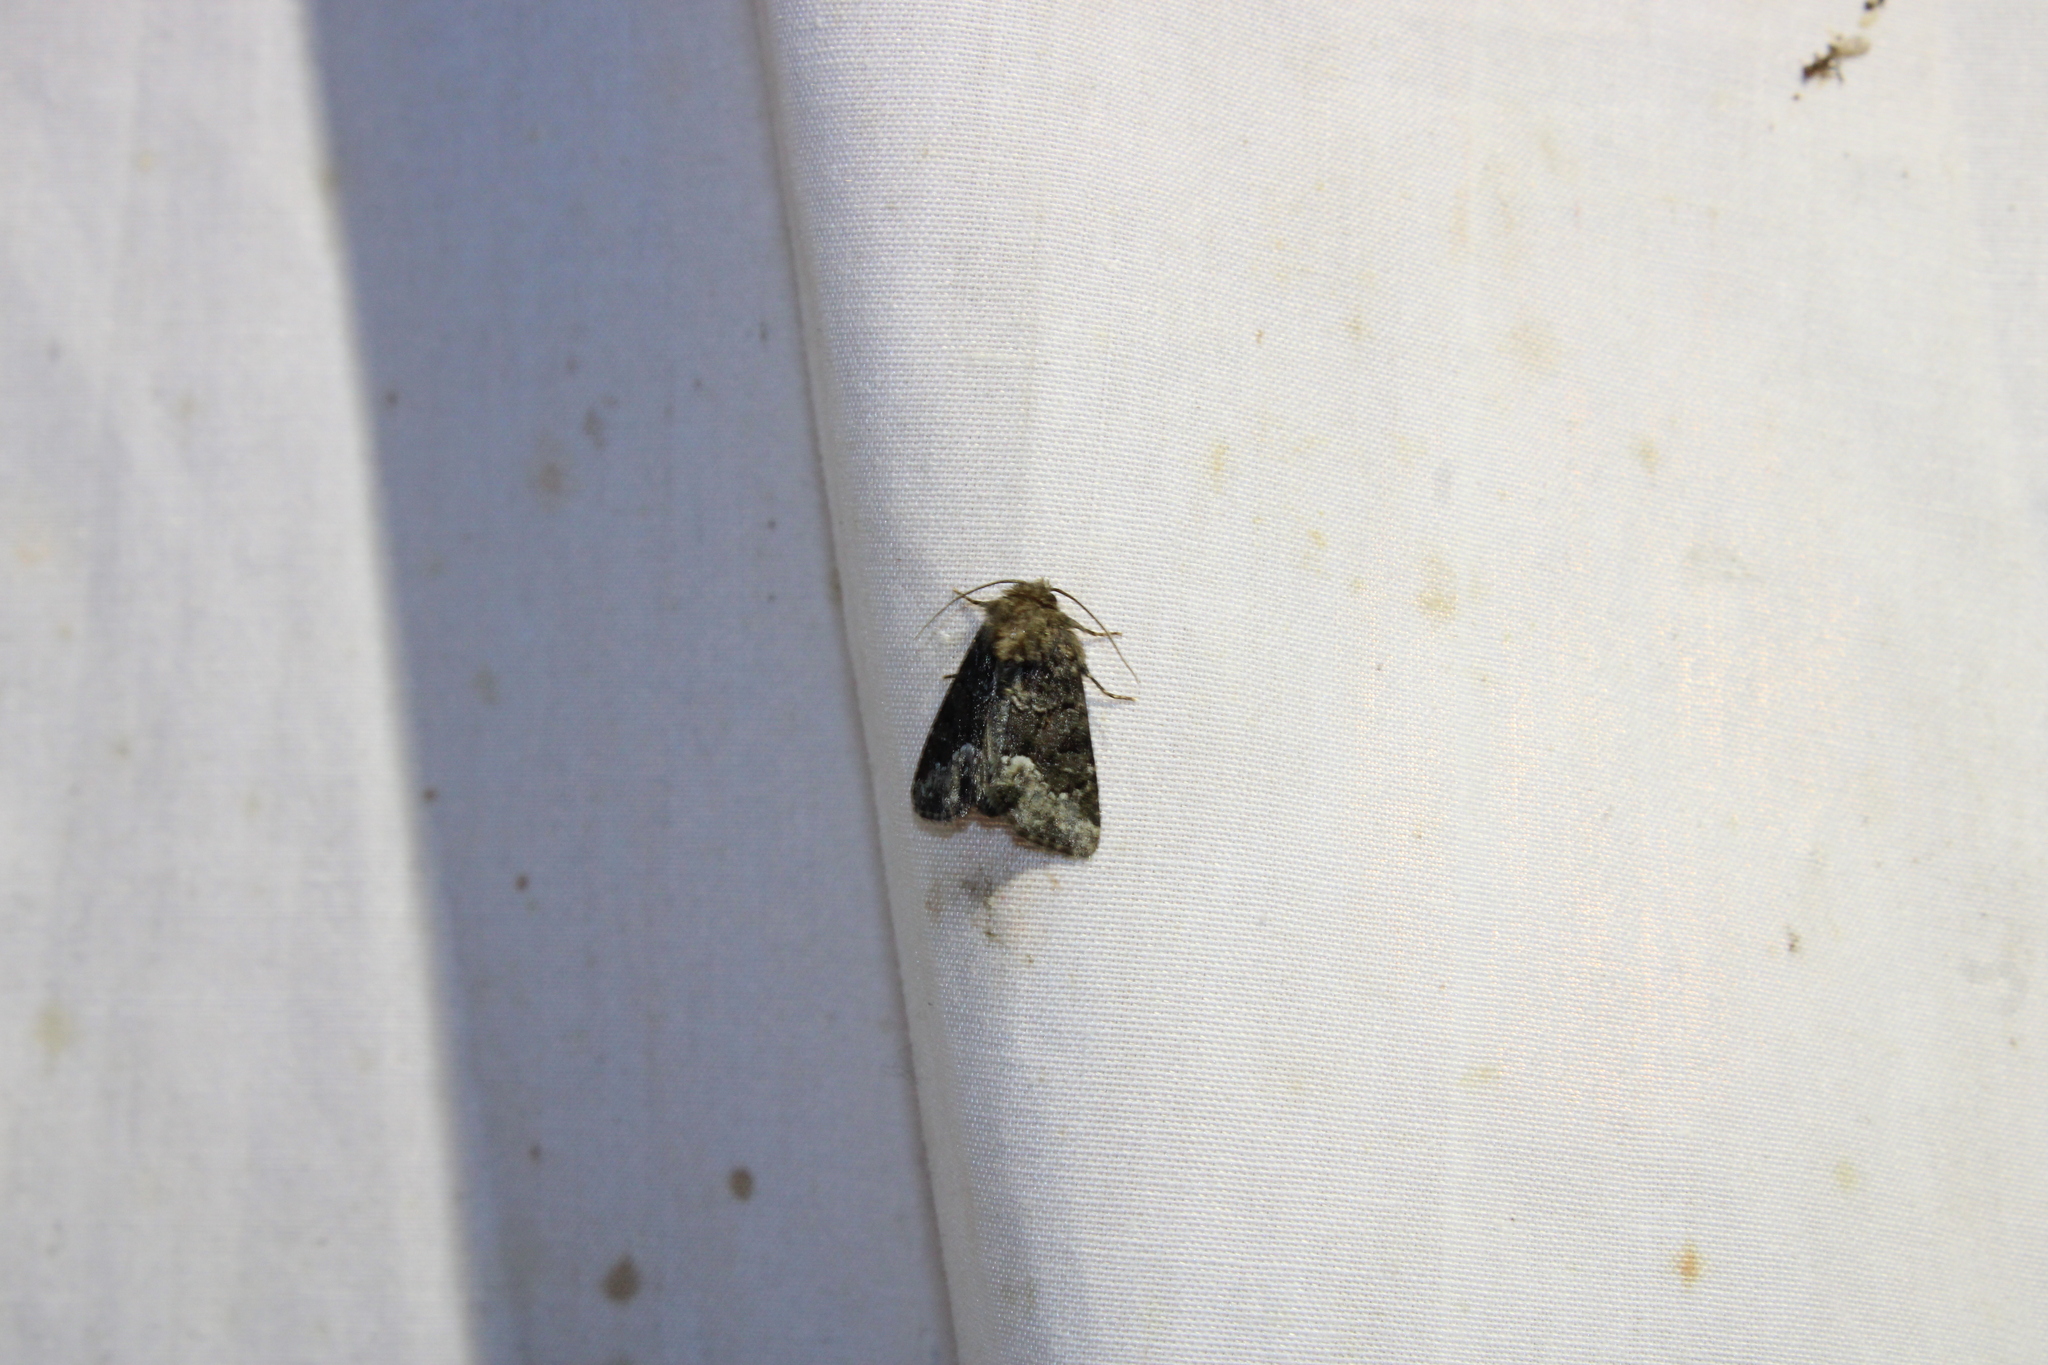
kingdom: Animalia
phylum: Arthropoda
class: Insecta
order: Lepidoptera
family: Noctuidae
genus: Oligia
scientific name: Oligia strigilis
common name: Marbled minor
